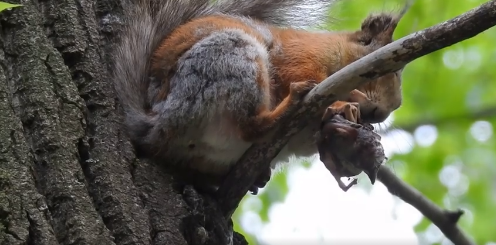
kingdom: Animalia
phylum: Chordata
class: Mammalia
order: Rodentia
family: Sciuridae
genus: Sciurus
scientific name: Sciurus vulgaris
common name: Eurasian red squirrel
